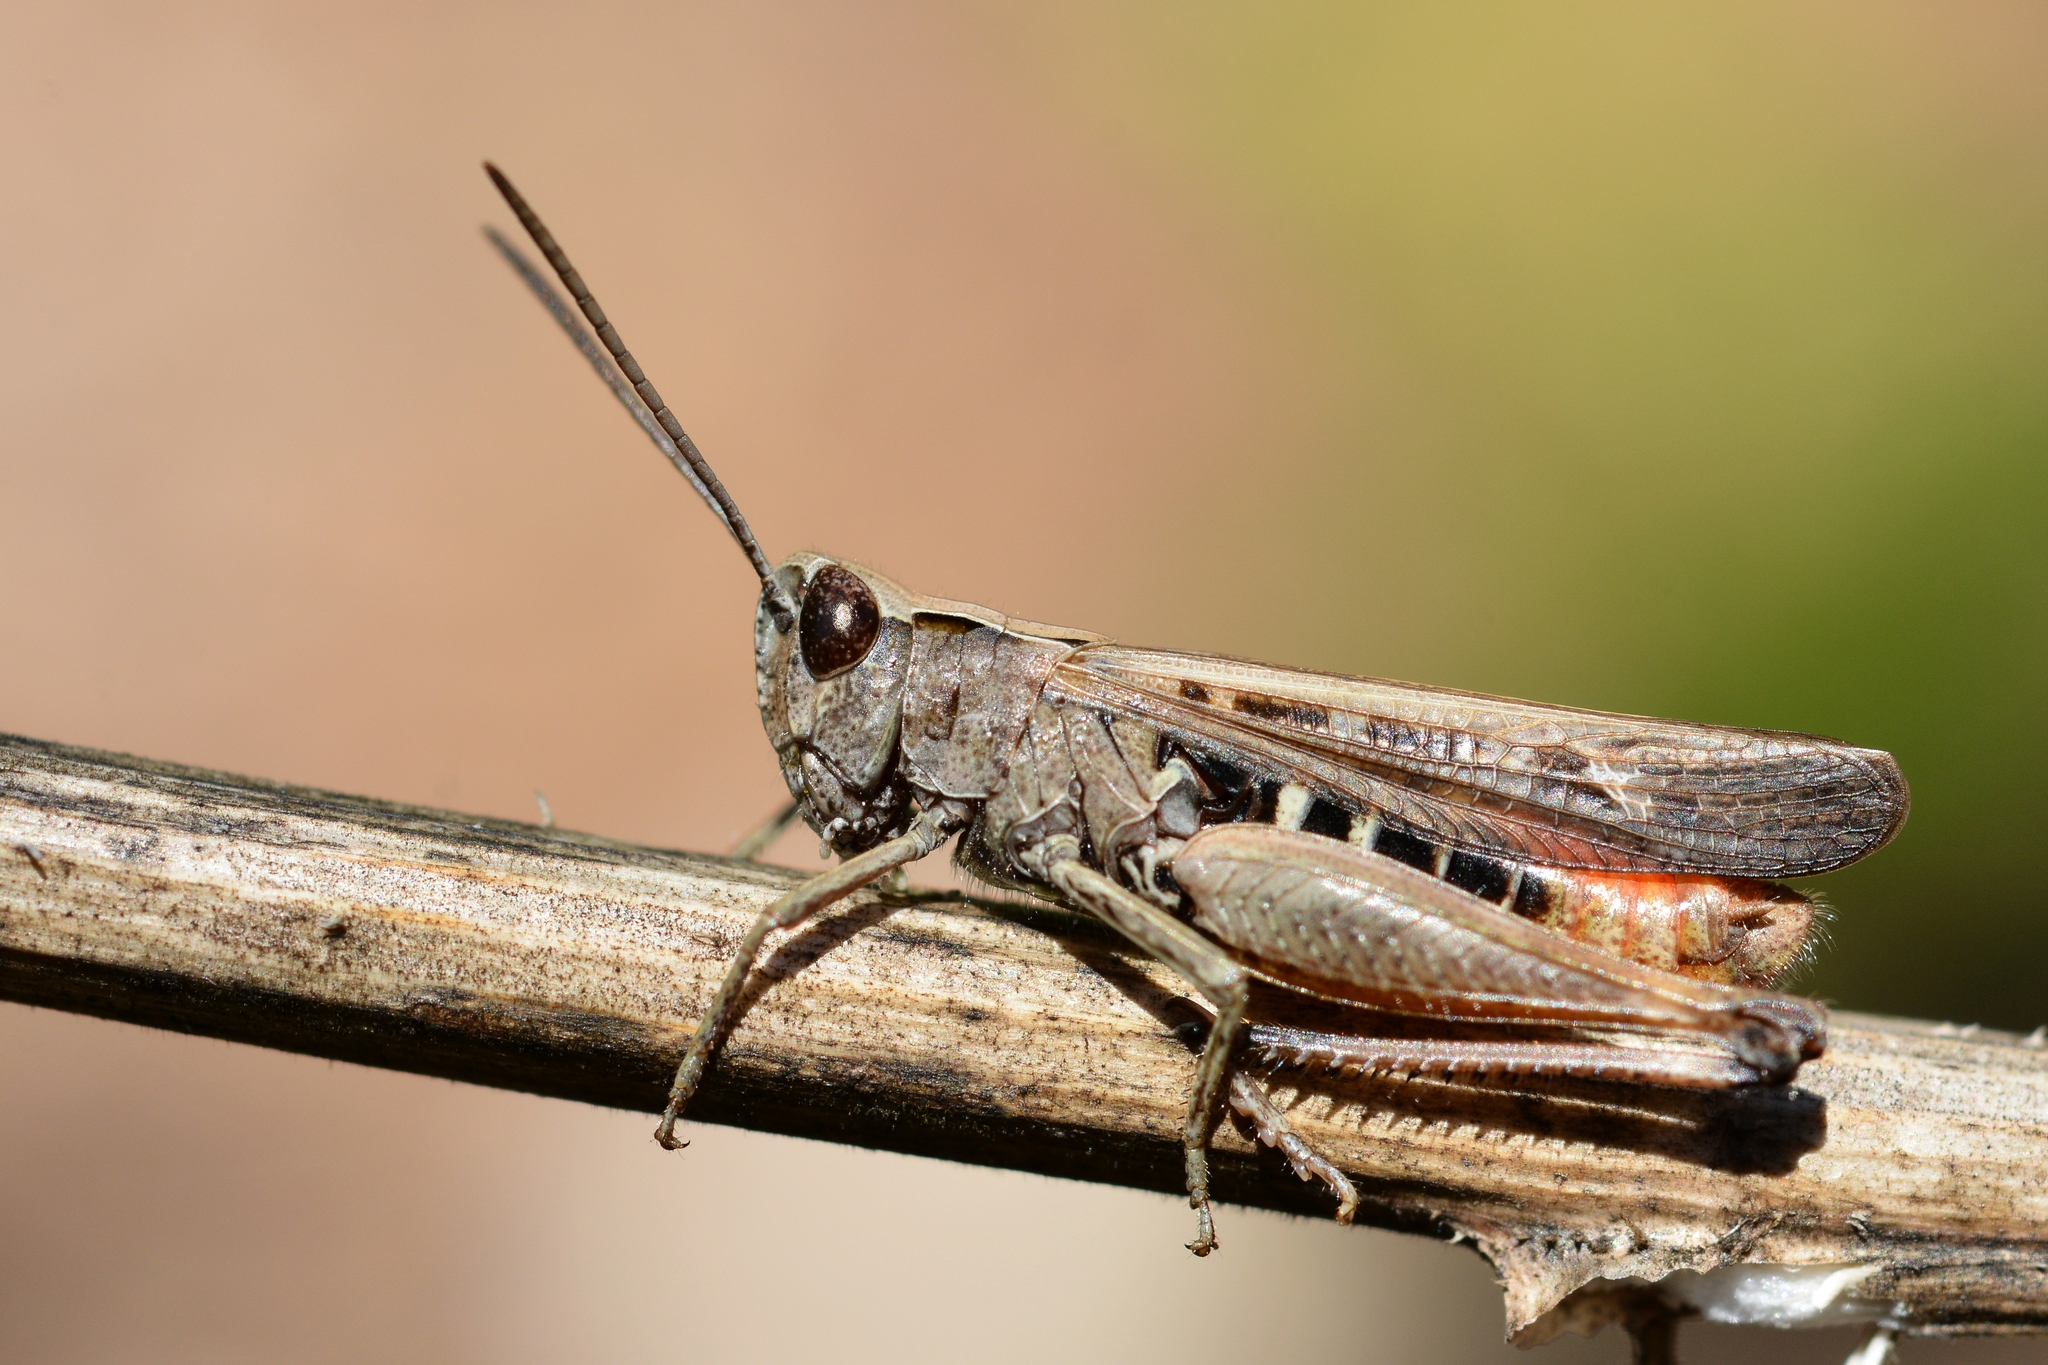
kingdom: Animalia
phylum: Arthropoda
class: Insecta
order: Orthoptera
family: Acrididae
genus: Omocestus
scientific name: Omocestus rufipes
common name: Woodland grasshopper
